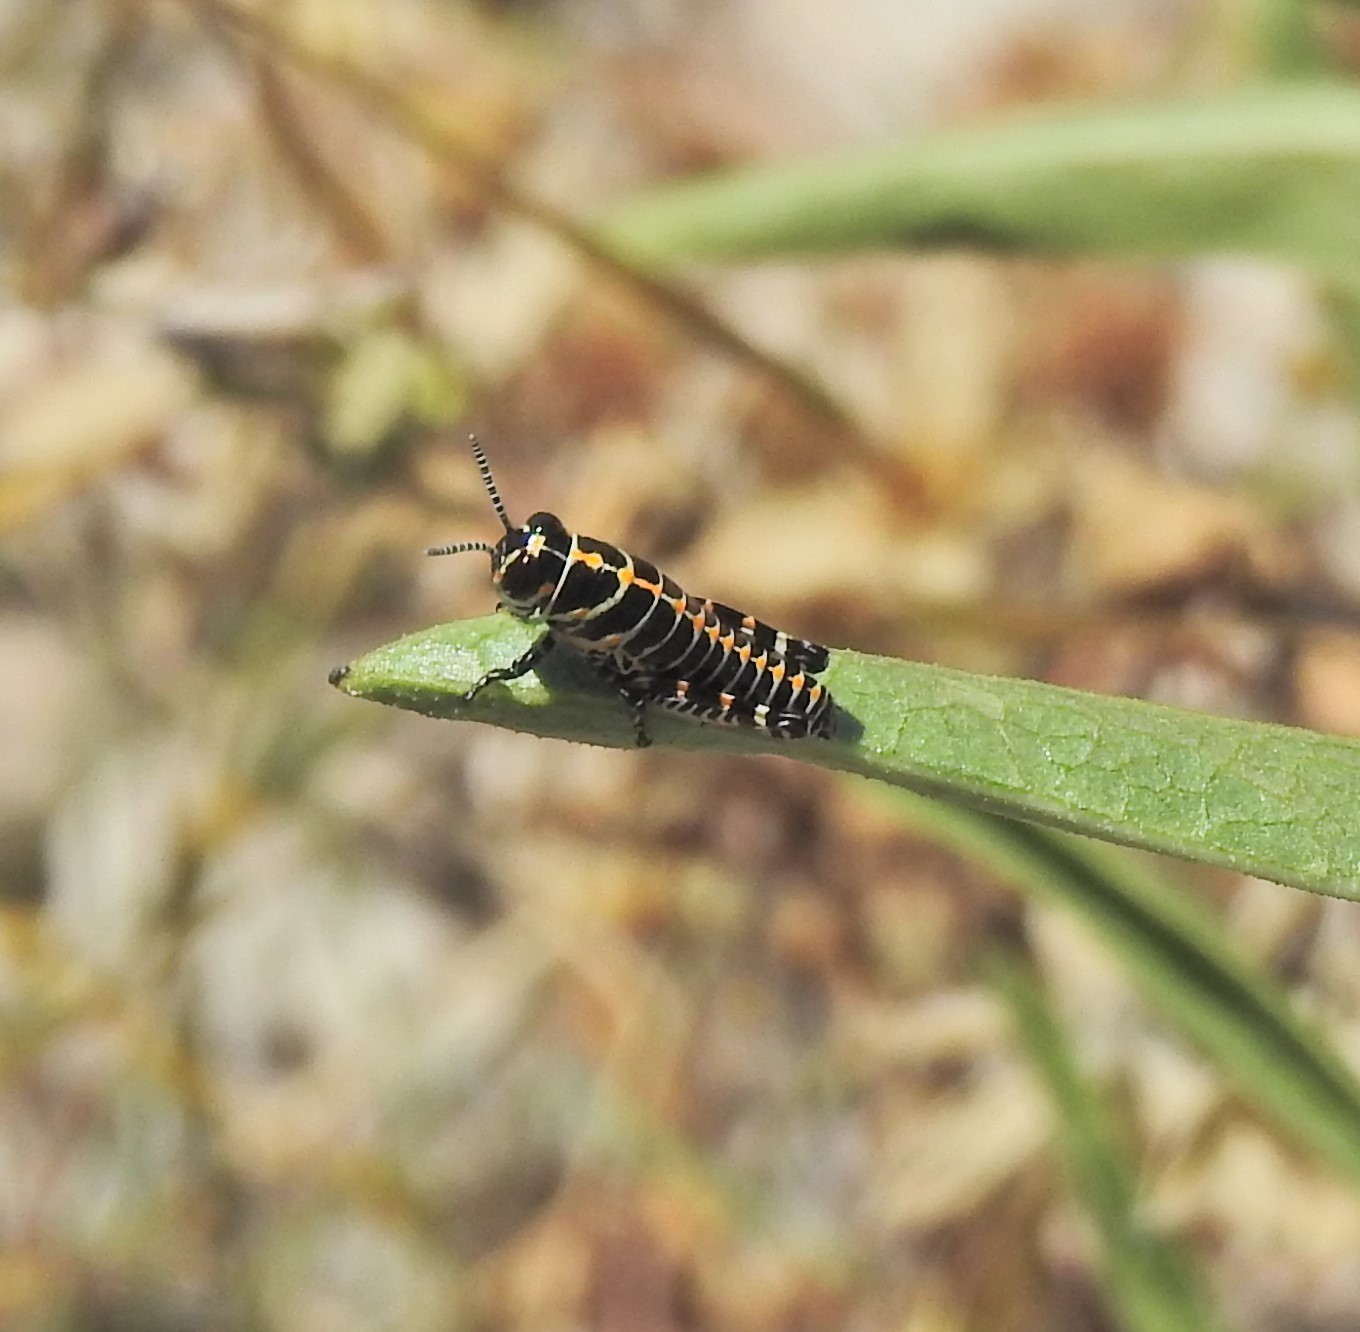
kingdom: Animalia
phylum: Arthropoda
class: Insecta
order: Orthoptera
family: Acrididae
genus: Dactylotum
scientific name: Dactylotum bicolor
